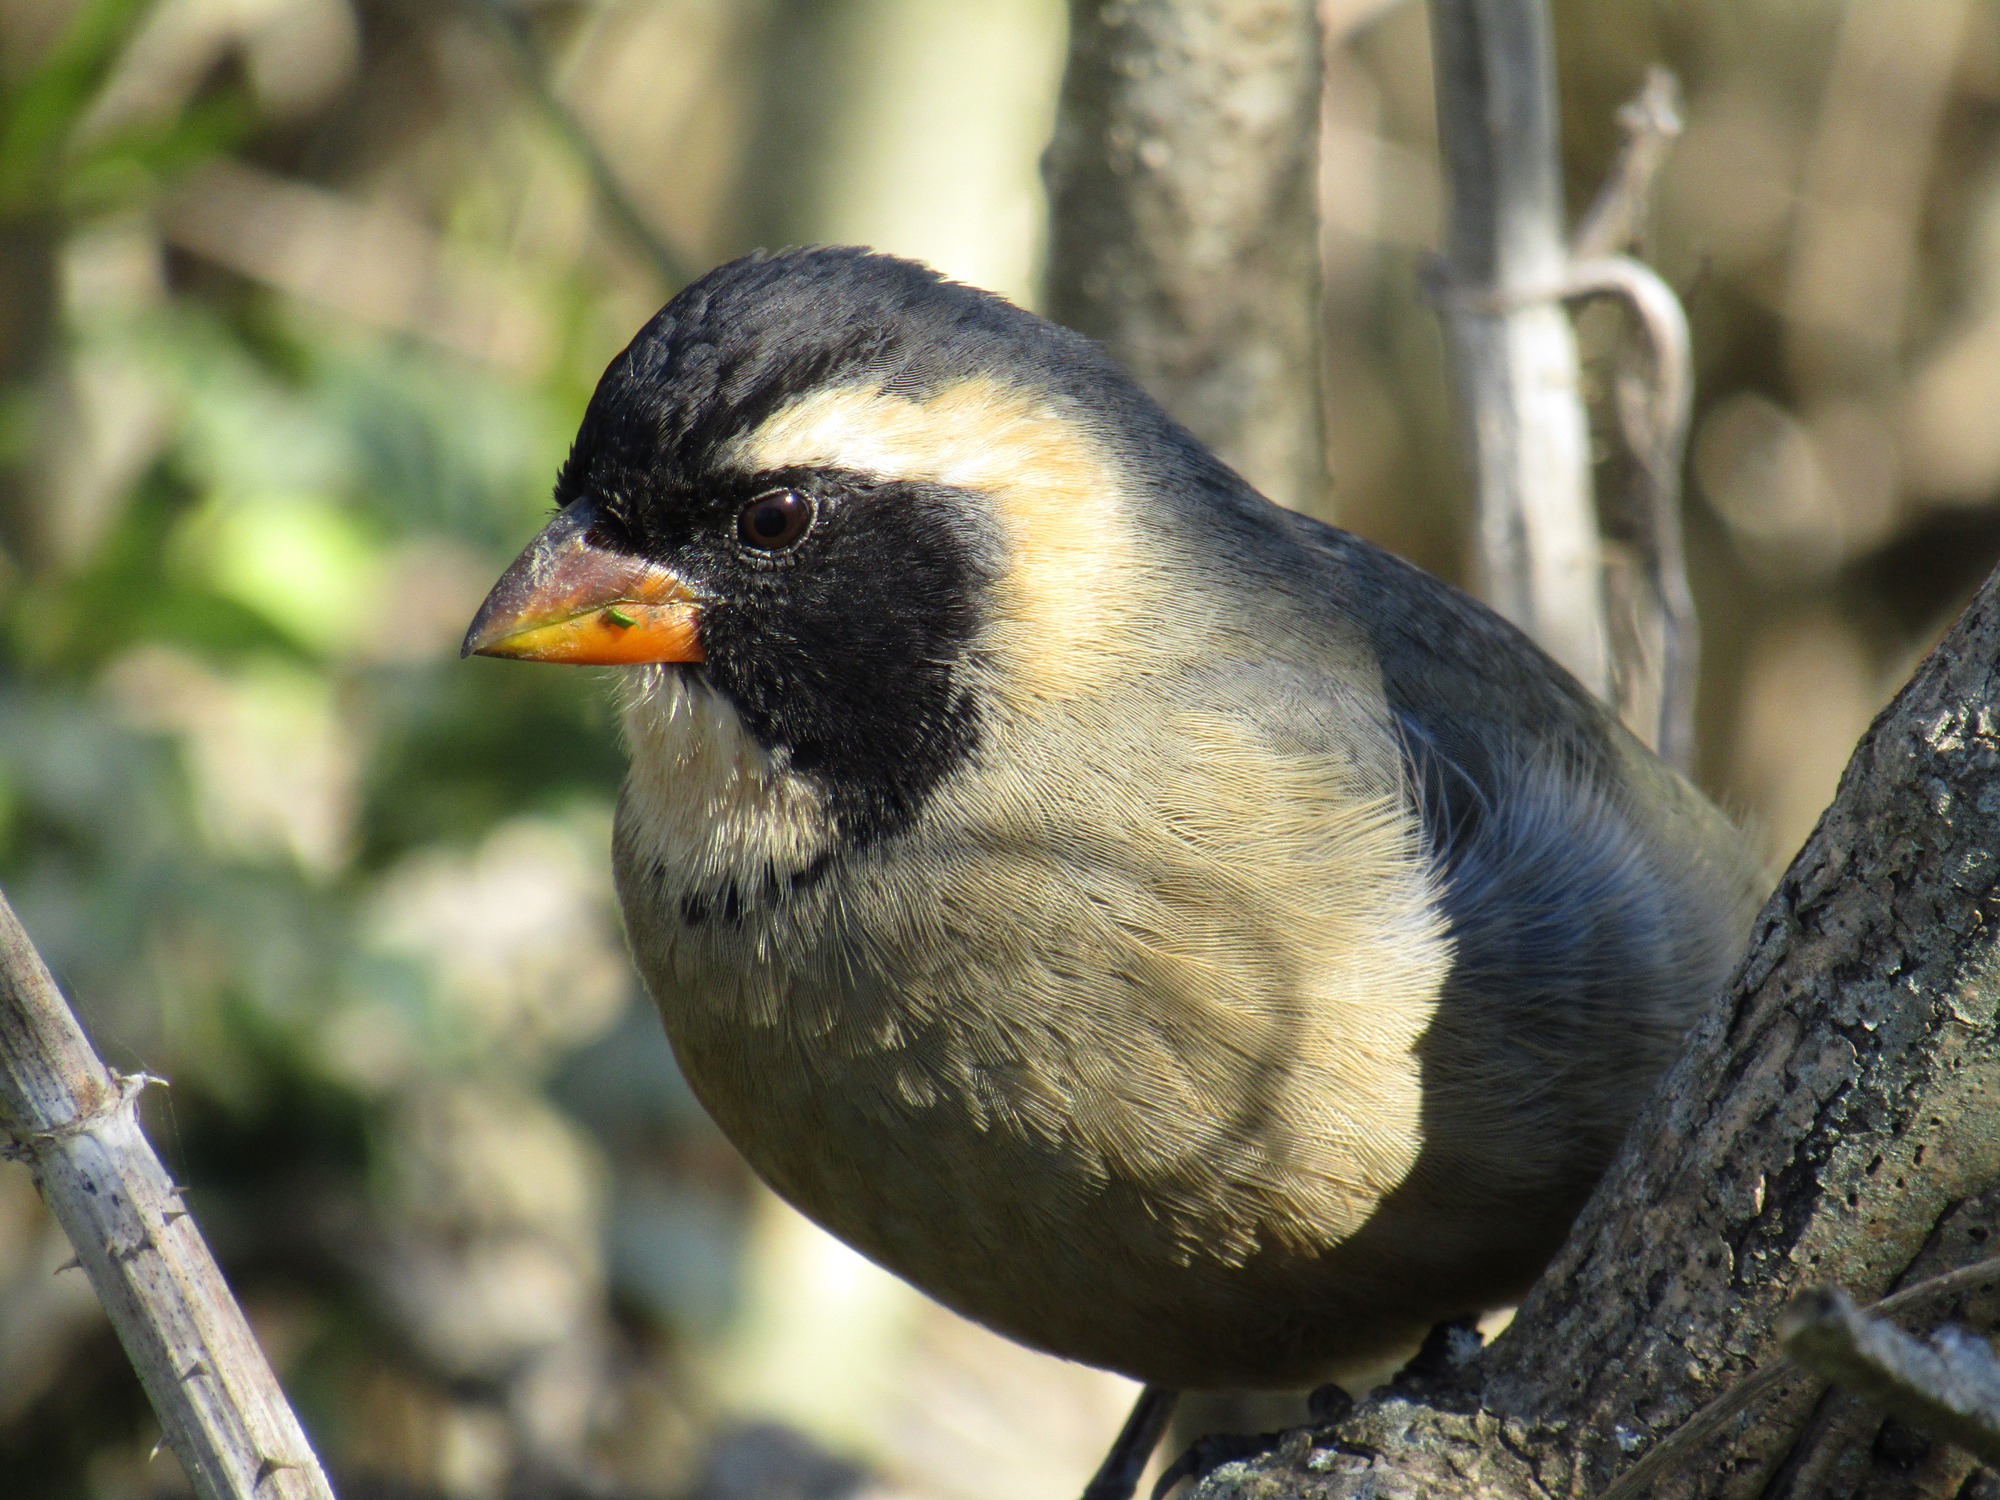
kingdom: Animalia
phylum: Chordata
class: Aves
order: Passeriformes
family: Thraupidae
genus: Saltator
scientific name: Saltator aurantiirostris
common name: Golden-billed saltator
